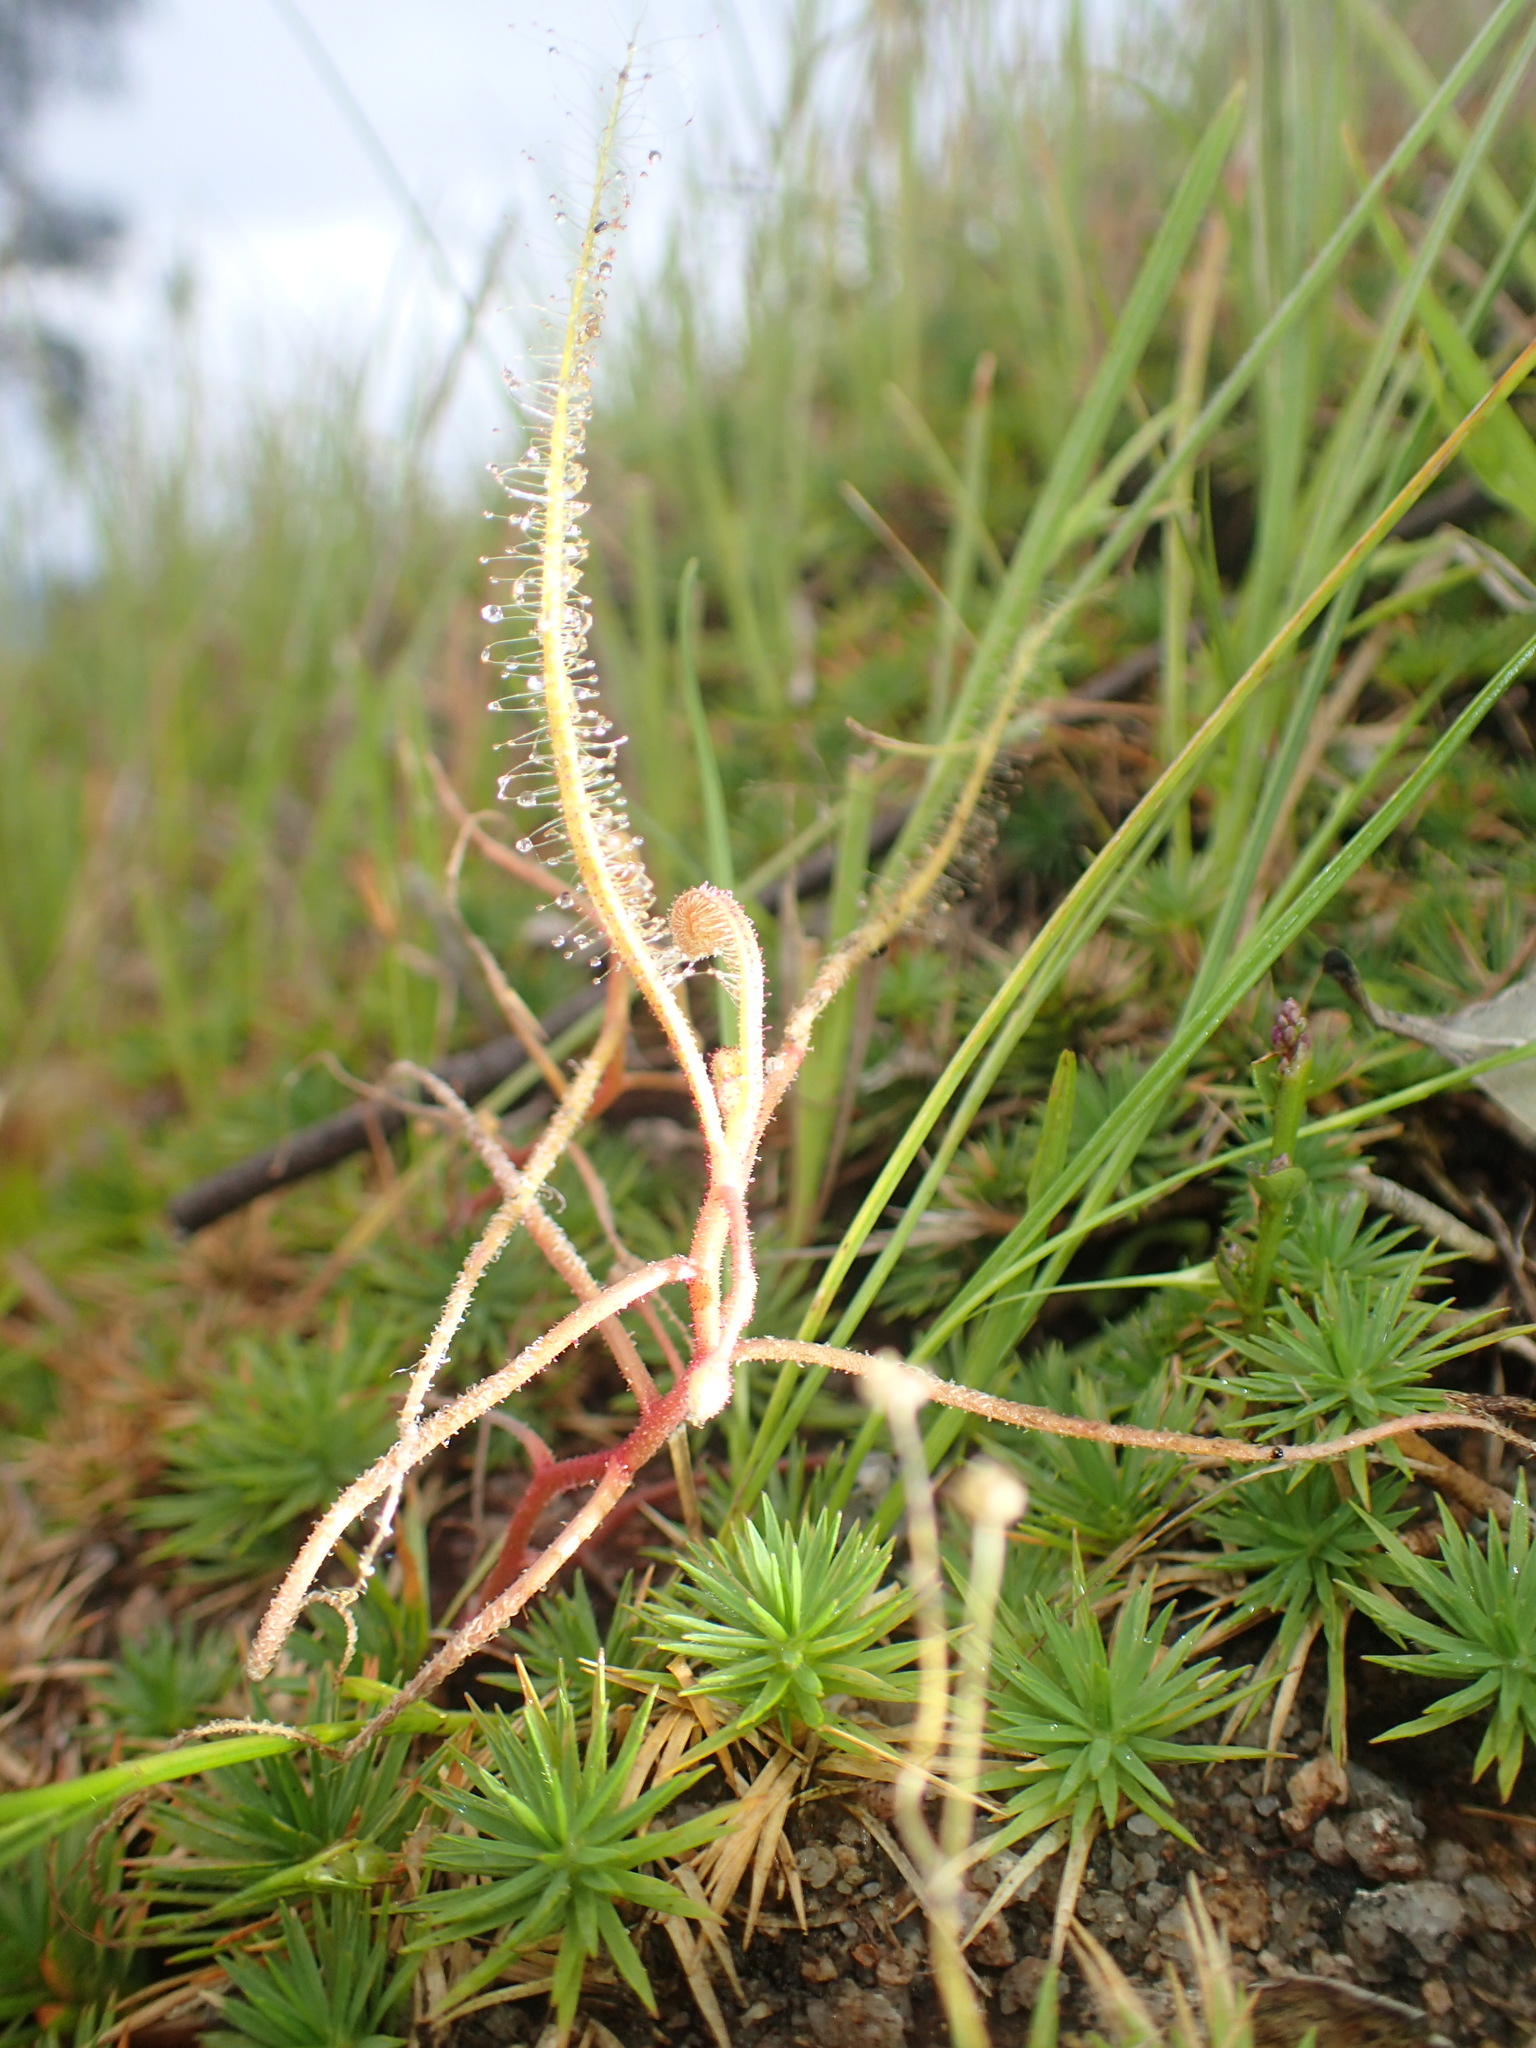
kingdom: Plantae
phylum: Tracheophyta
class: Magnoliopsida
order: Caryophyllales
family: Droseraceae
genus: Drosera
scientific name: Drosera indica
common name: Indian sundew
